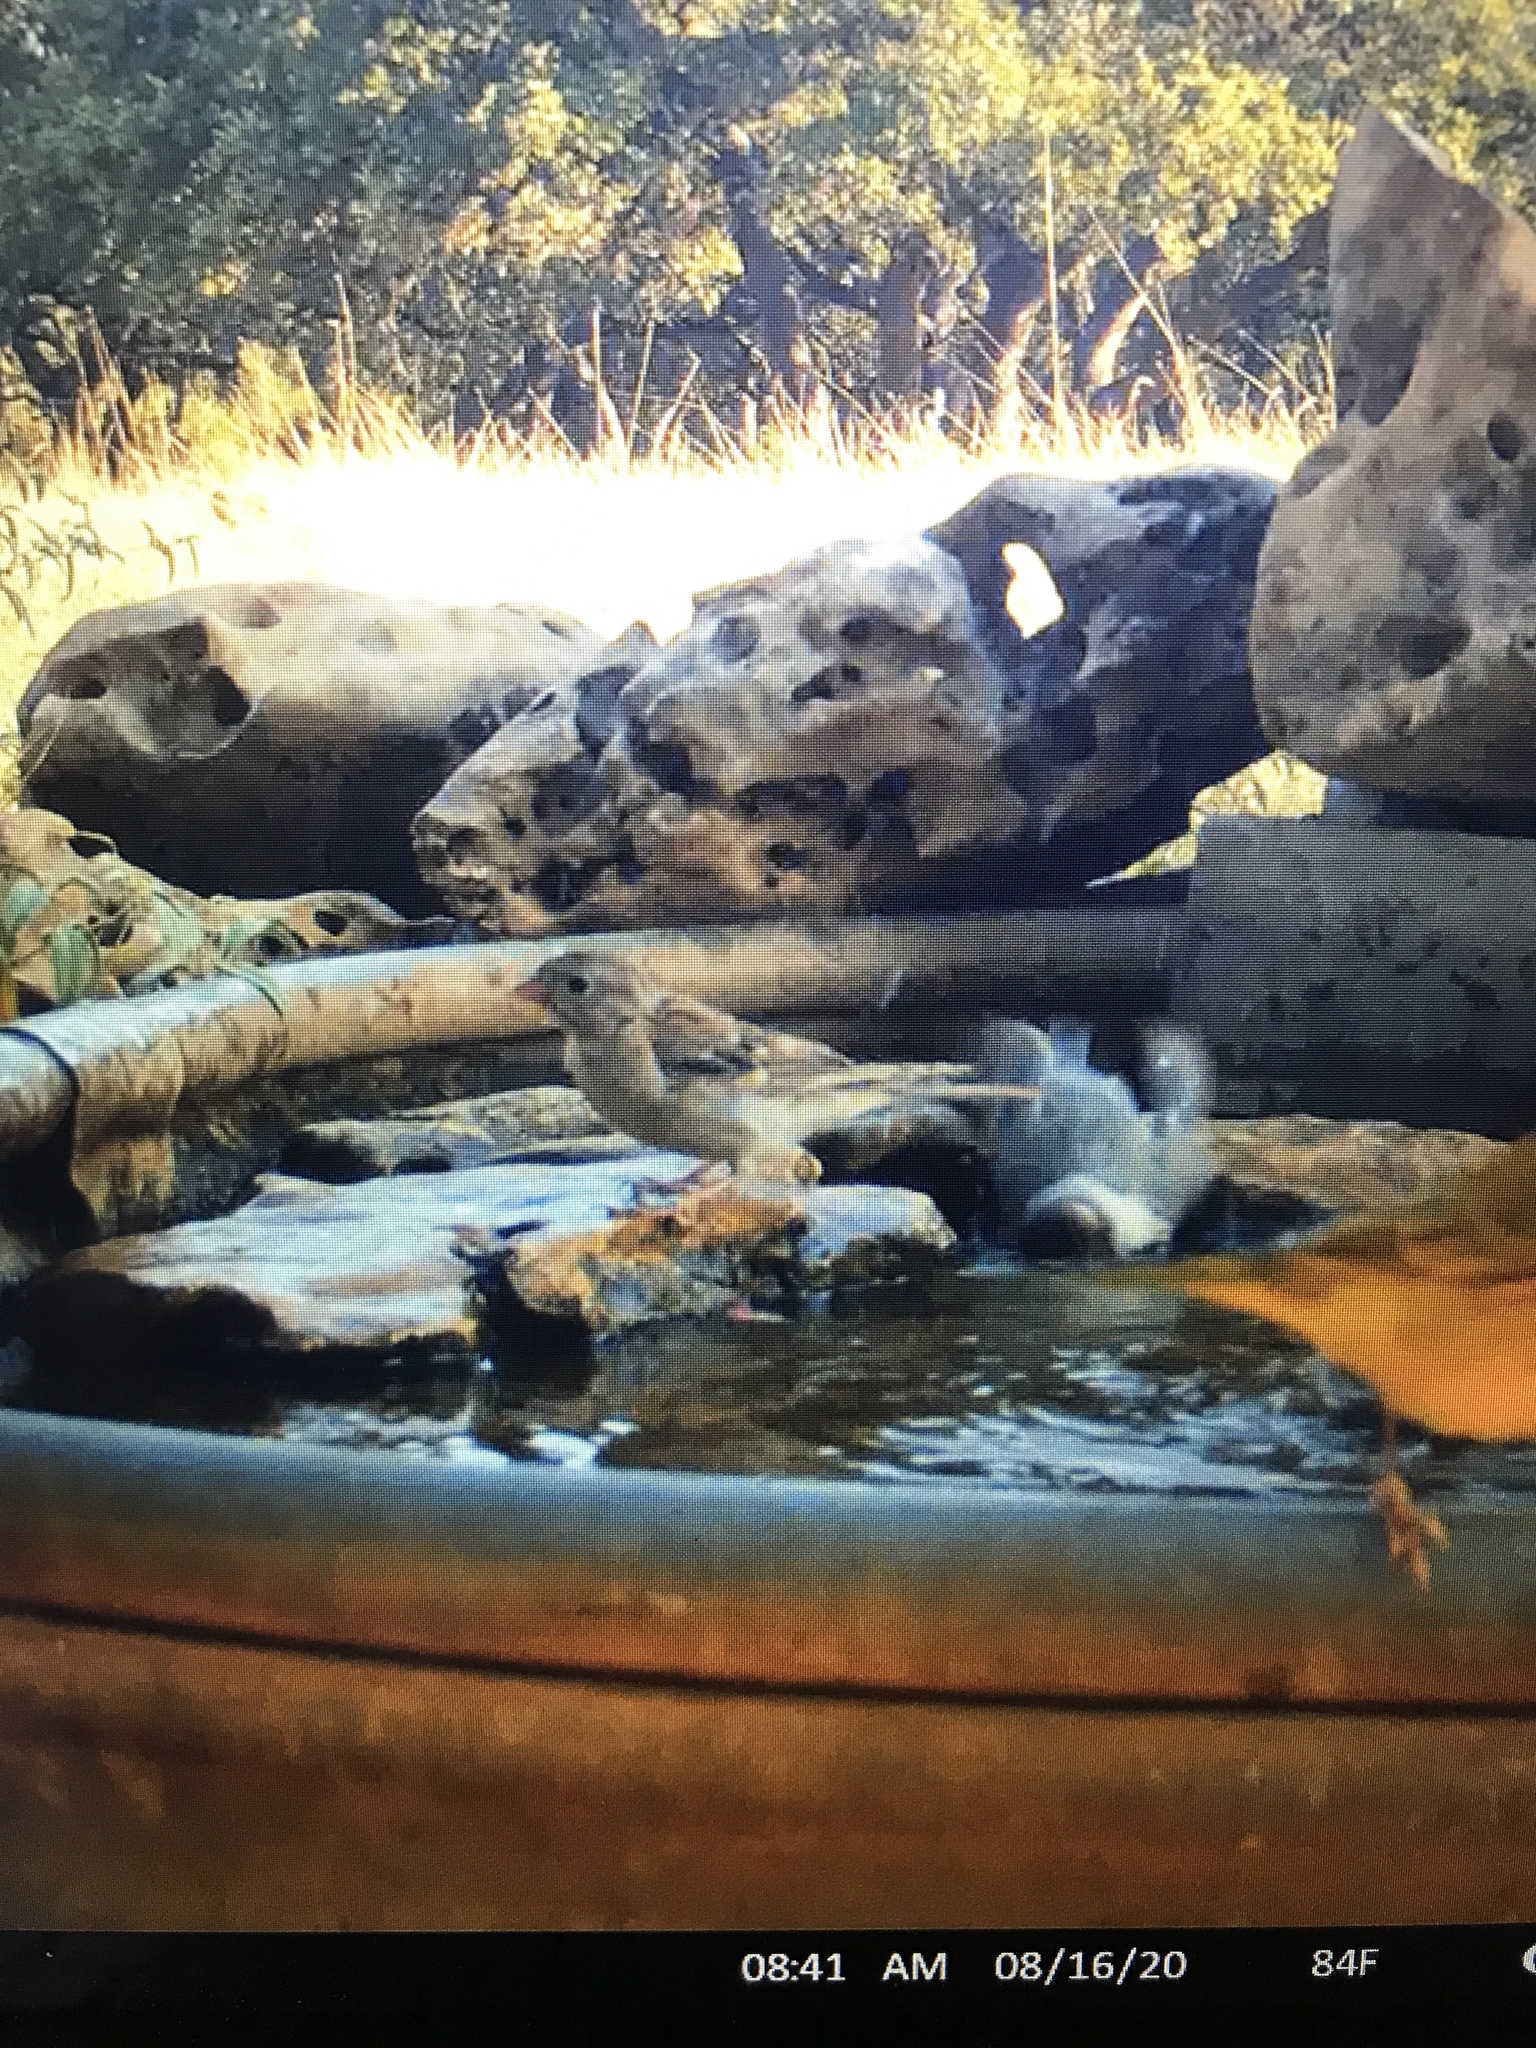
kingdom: Animalia
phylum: Chordata
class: Aves
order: Passeriformes
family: Passerellidae
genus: Spizella
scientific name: Spizella pusilla
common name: Field sparrow
